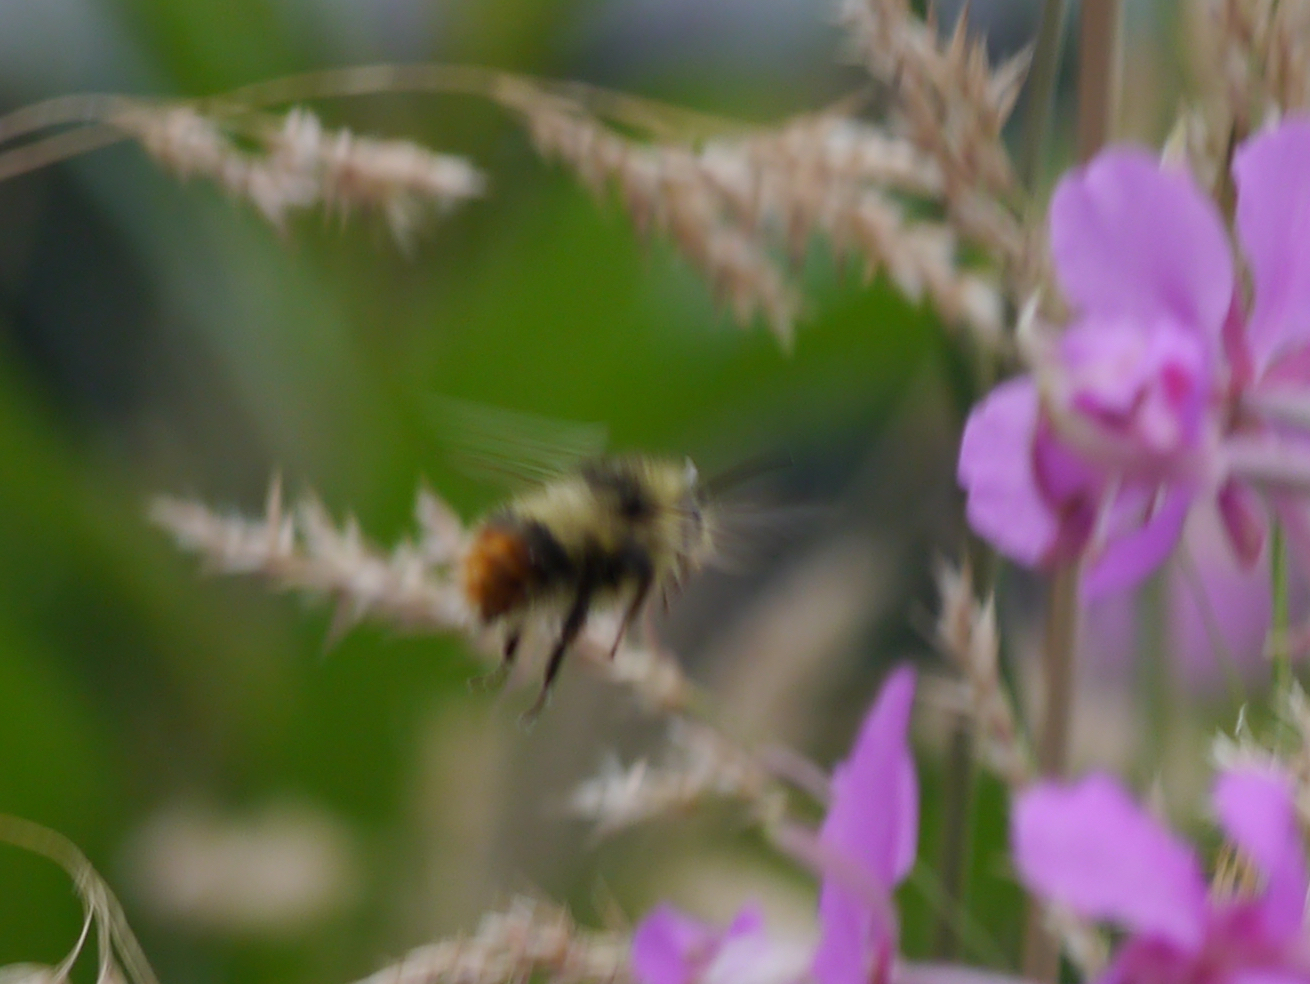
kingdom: Animalia
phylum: Arthropoda
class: Insecta
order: Hymenoptera
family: Apidae
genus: Bombus
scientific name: Bombus mixtus
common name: Fuzzy-horned bumble bee
